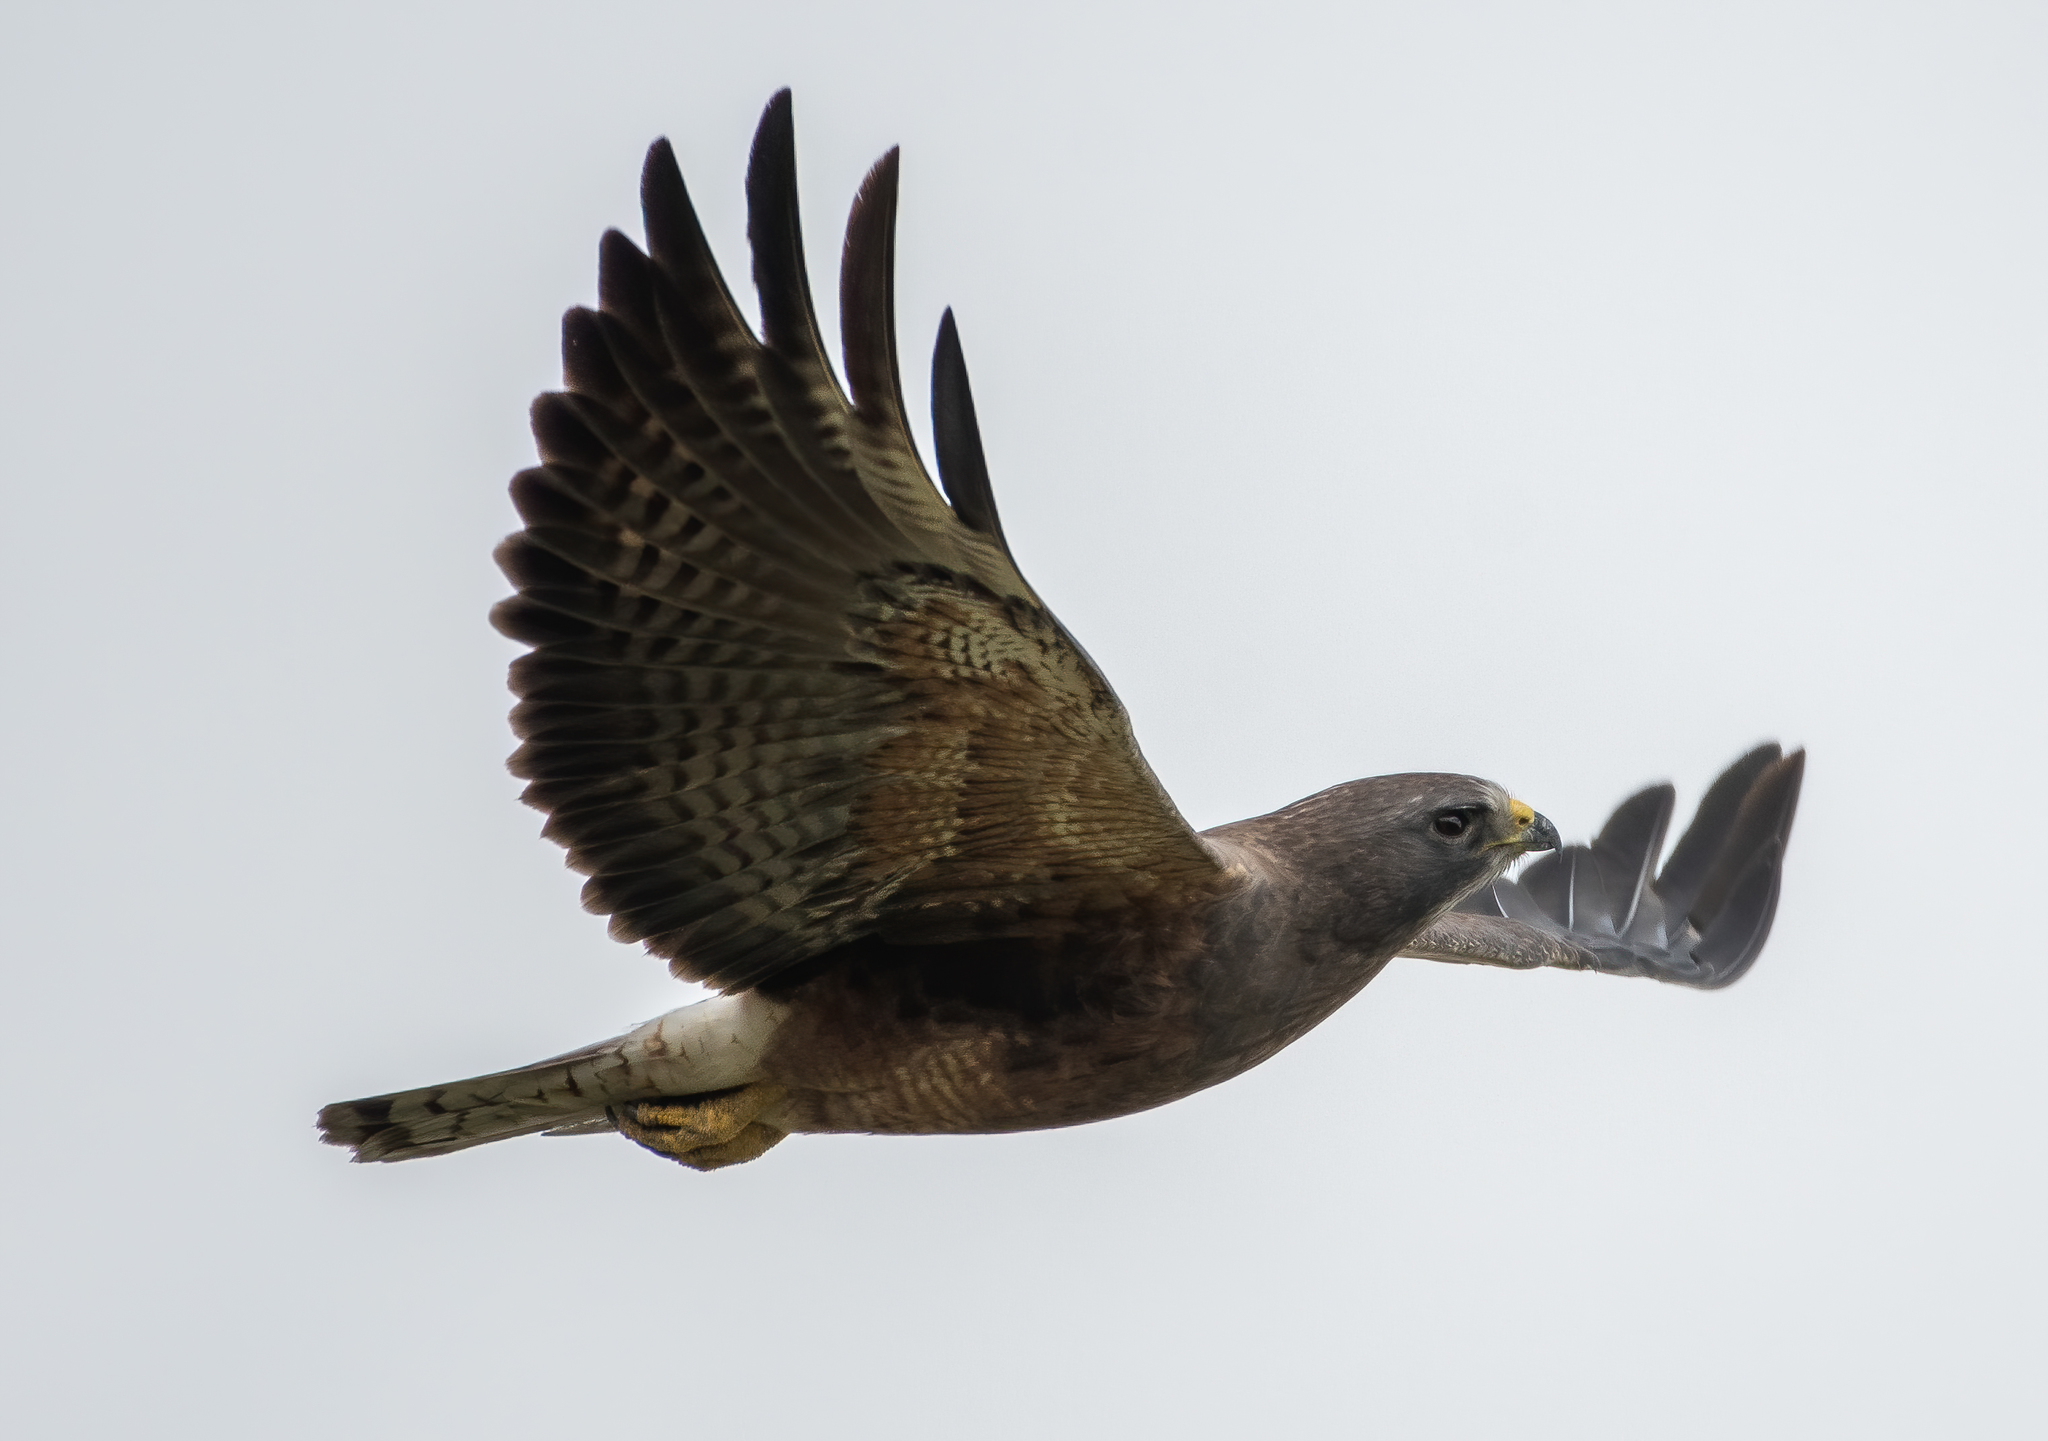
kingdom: Animalia
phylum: Chordata
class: Aves
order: Accipitriformes
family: Accipitridae
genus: Buteo
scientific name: Buteo swainsoni
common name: Swainson's hawk
